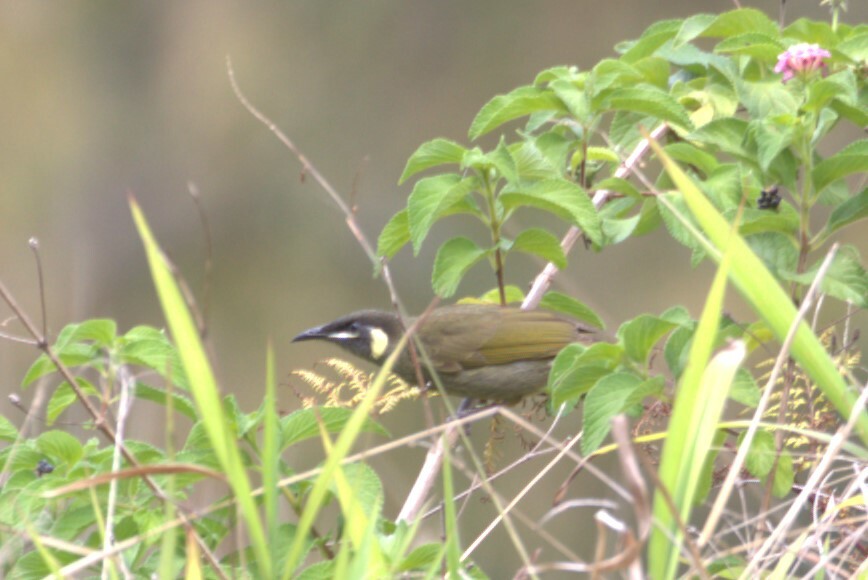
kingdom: Animalia
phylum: Chordata
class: Aves
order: Passeriformes
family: Meliphagidae
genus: Meliphaga
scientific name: Meliphaga lewinii
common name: Lewin's honeyeater
